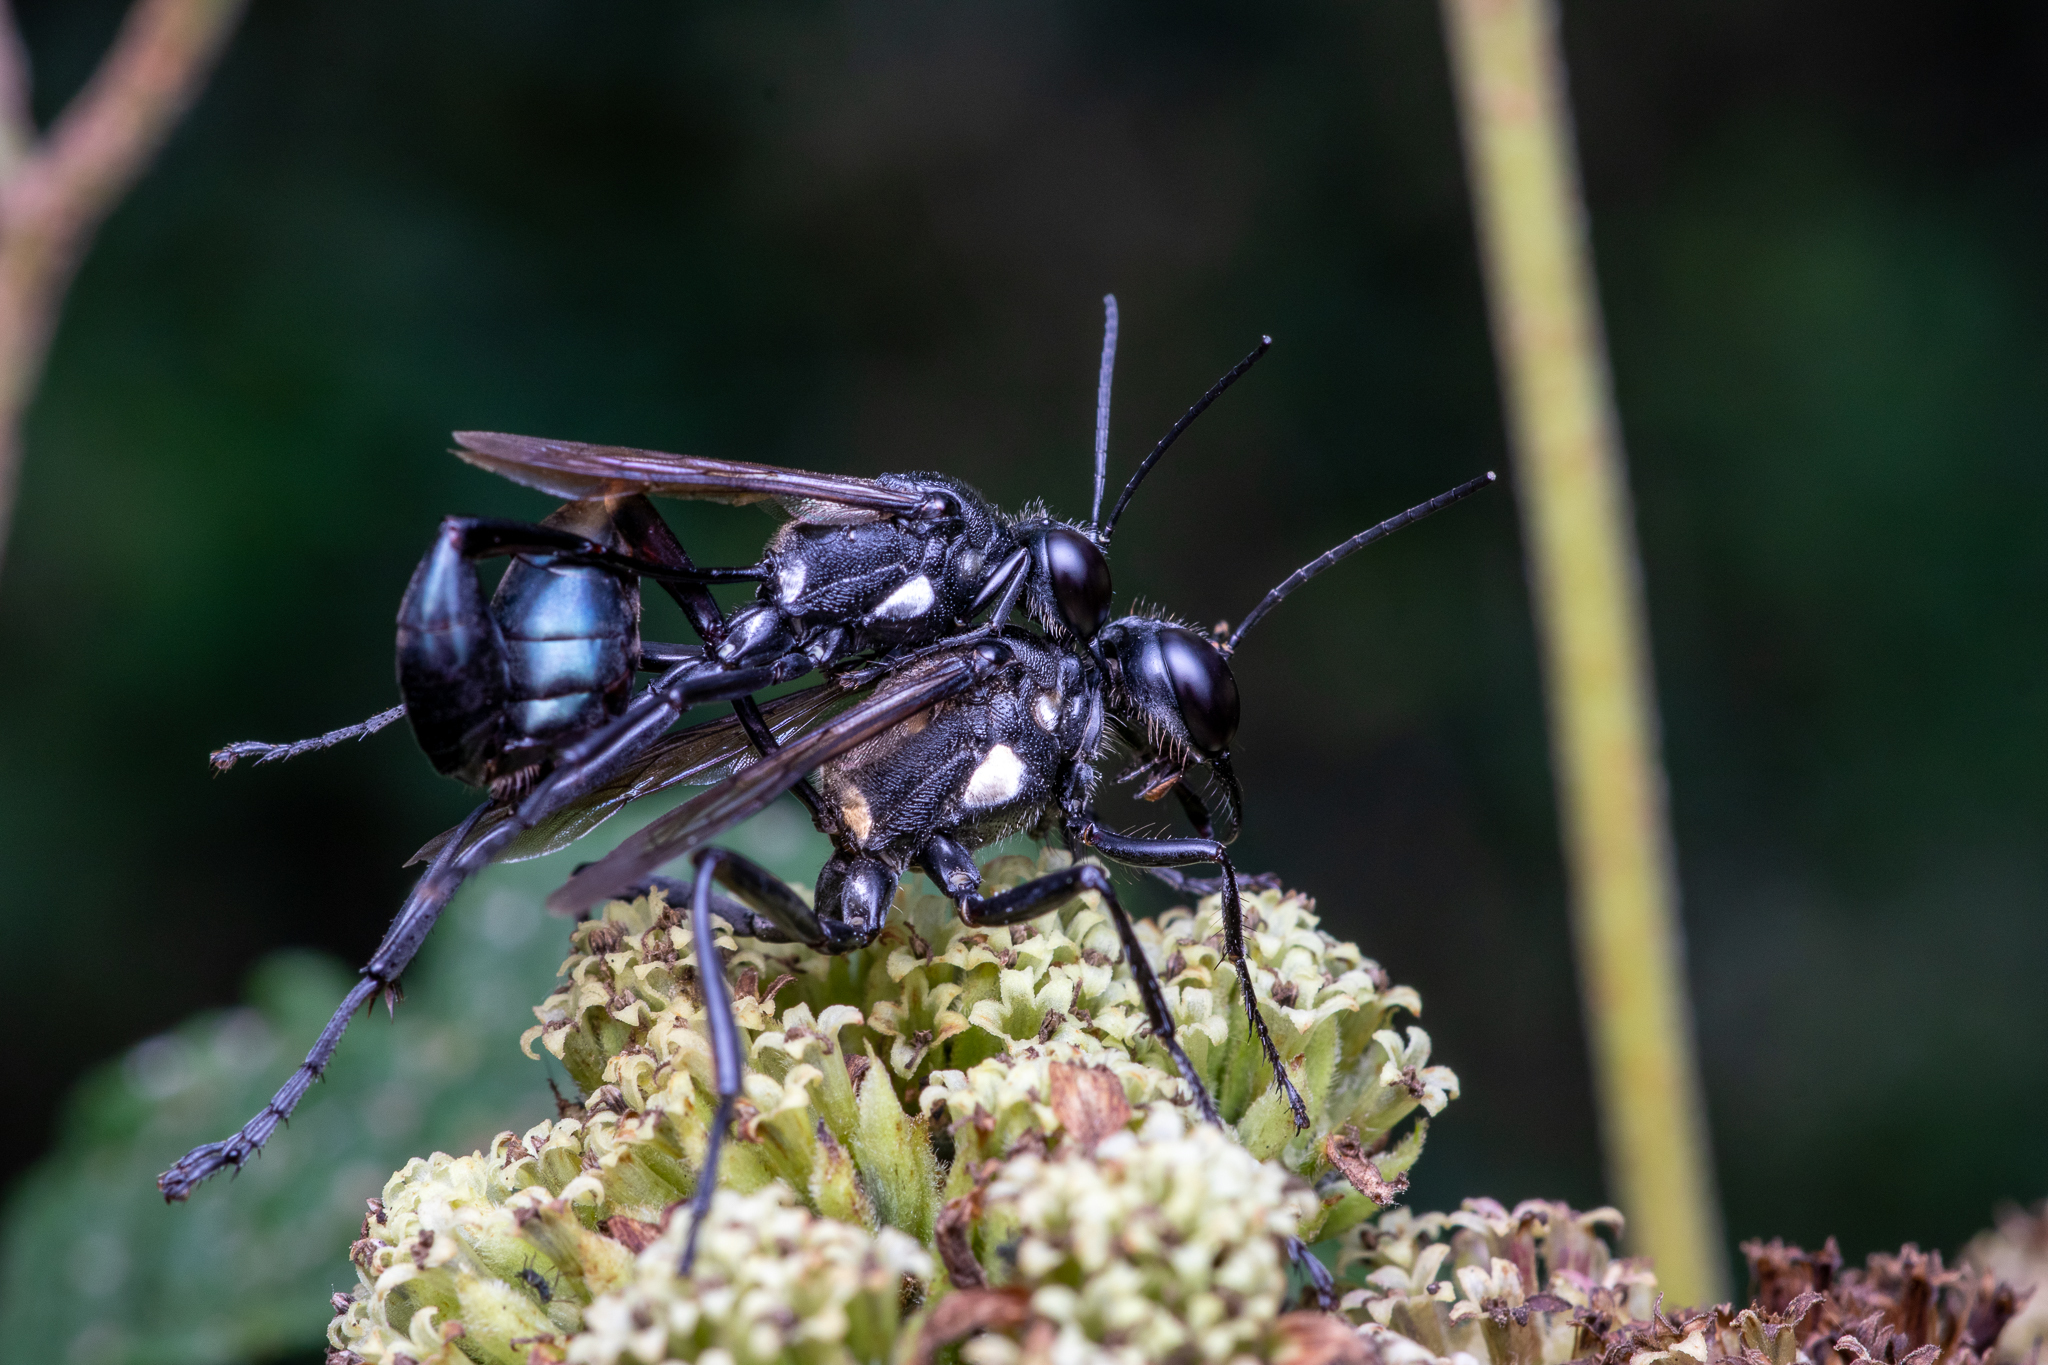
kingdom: Animalia
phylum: Arthropoda
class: Insecta
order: Hymenoptera
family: Sphecidae
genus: Eremnophila
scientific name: Eremnophila aureonotata
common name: Gold-marked thread-waisted wasp
